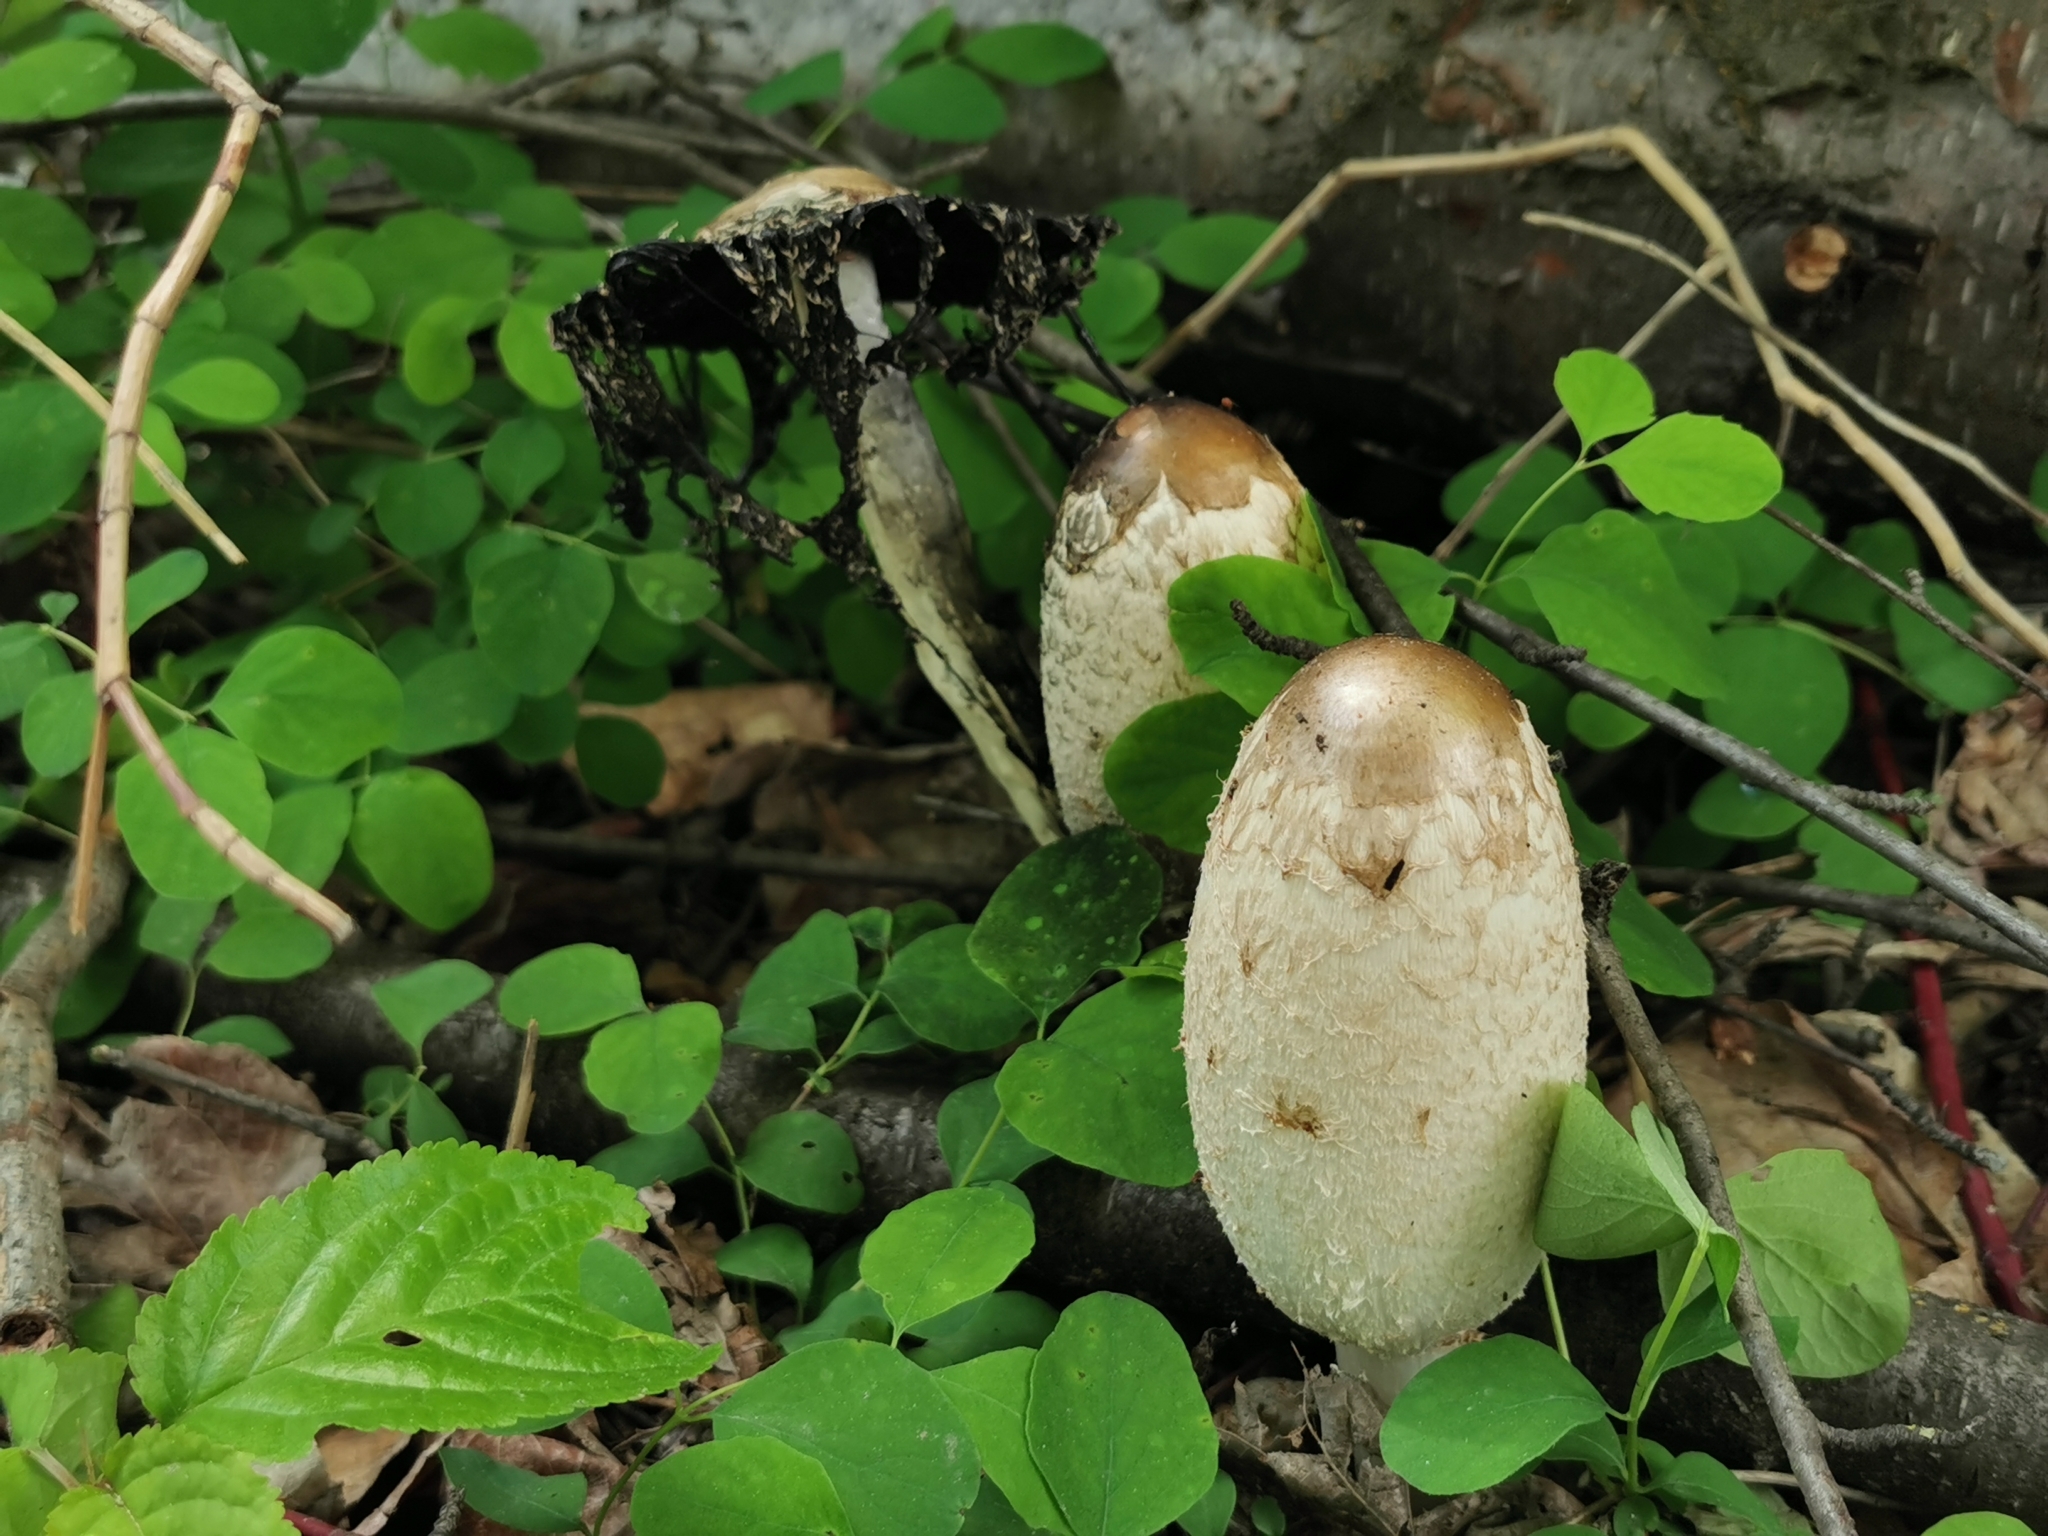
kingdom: Fungi
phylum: Basidiomycota
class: Agaricomycetes
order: Agaricales
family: Agaricaceae
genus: Coprinus
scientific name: Coprinus comatus
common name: Lawyer's wig
